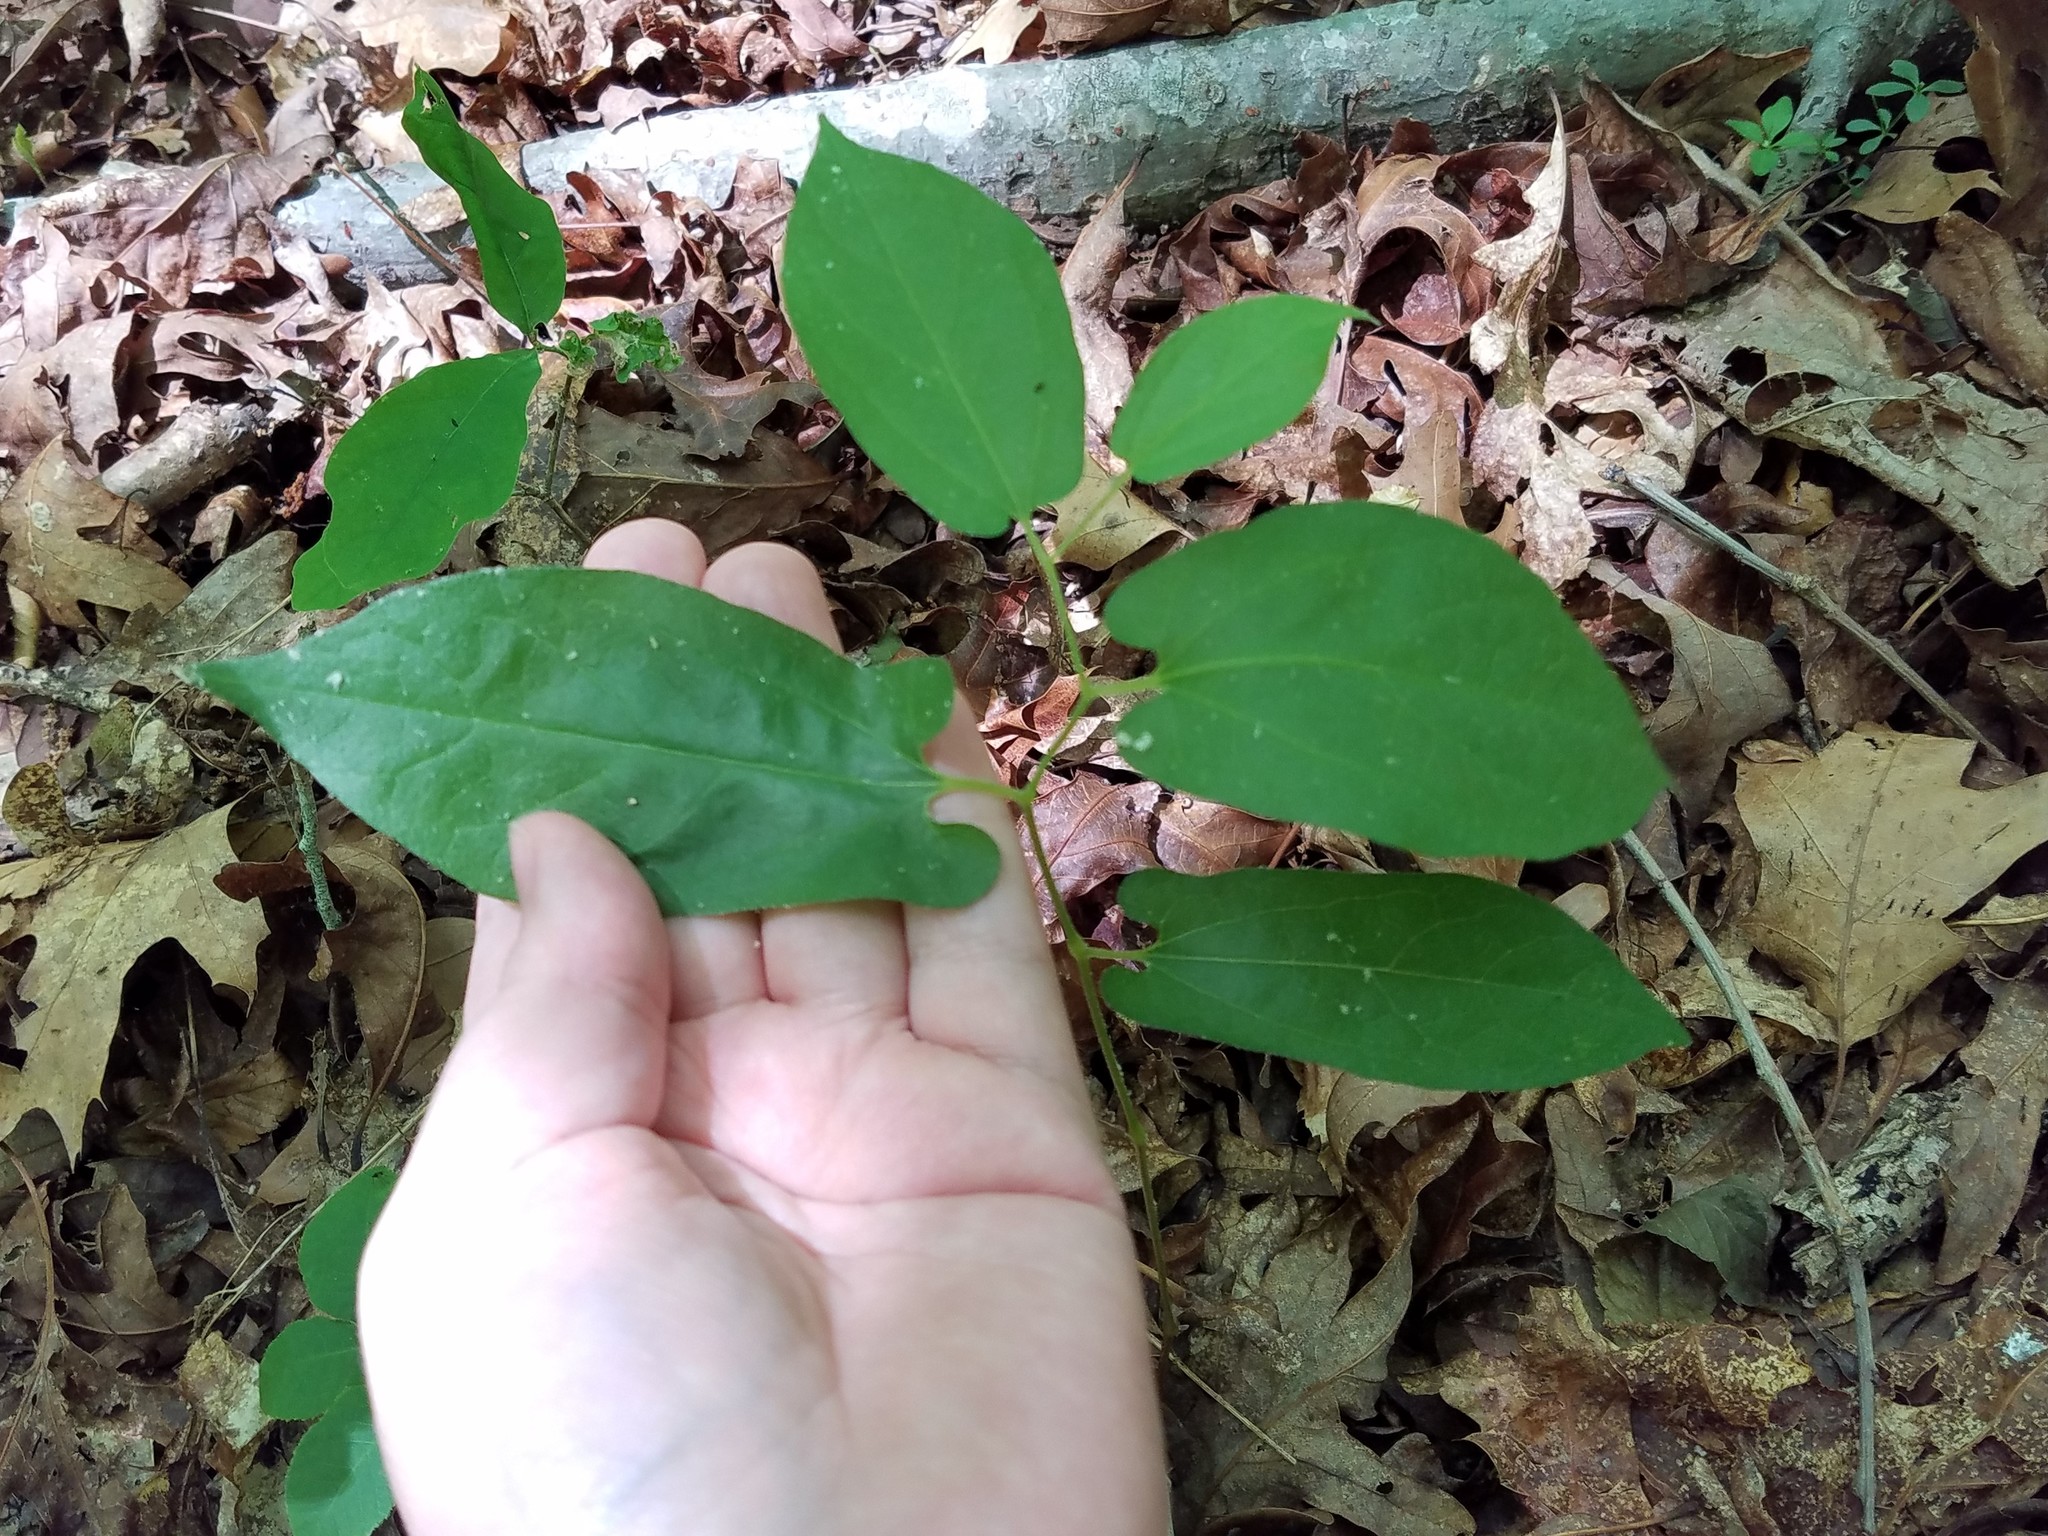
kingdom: Plantae
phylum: Tracheophyta
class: Magnoliopsida
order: Piperales
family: Aristolochiaceae
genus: Endodeca
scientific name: Endodeca serpentaria
